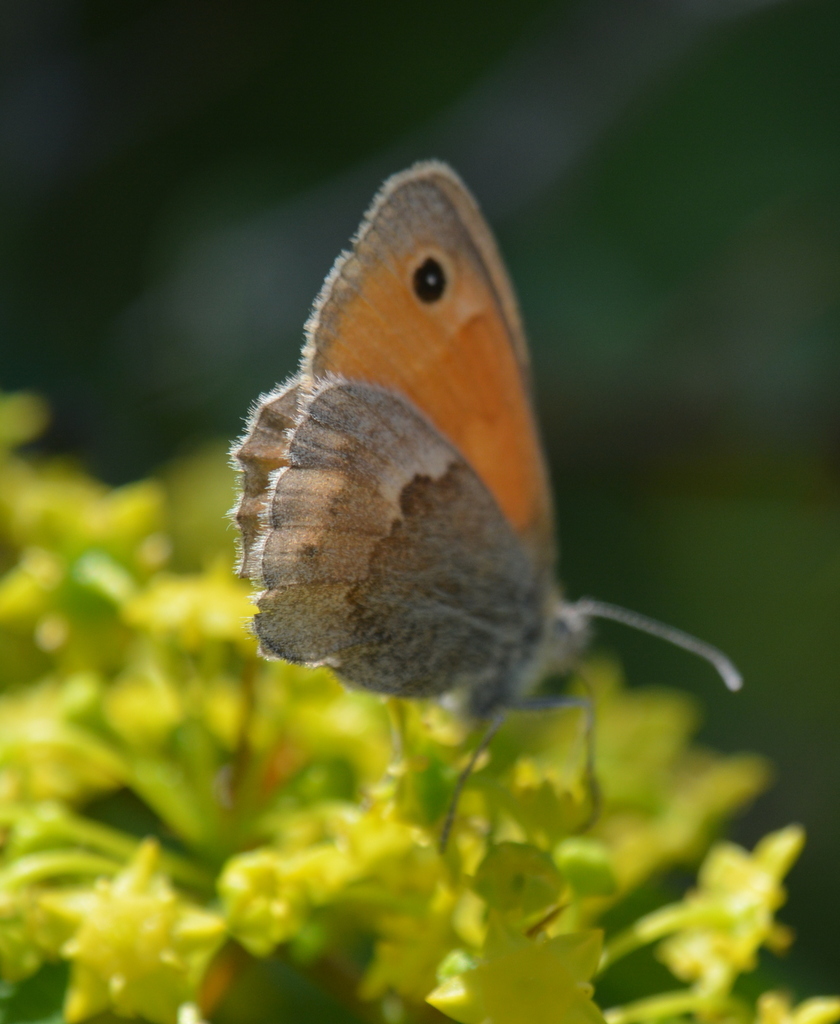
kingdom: Animalia
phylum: Arthropoda
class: Insecta
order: Lepidoptera
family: Nymphalidae
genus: Coenonympha
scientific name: Coenonympha pamphilus
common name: Small heath
